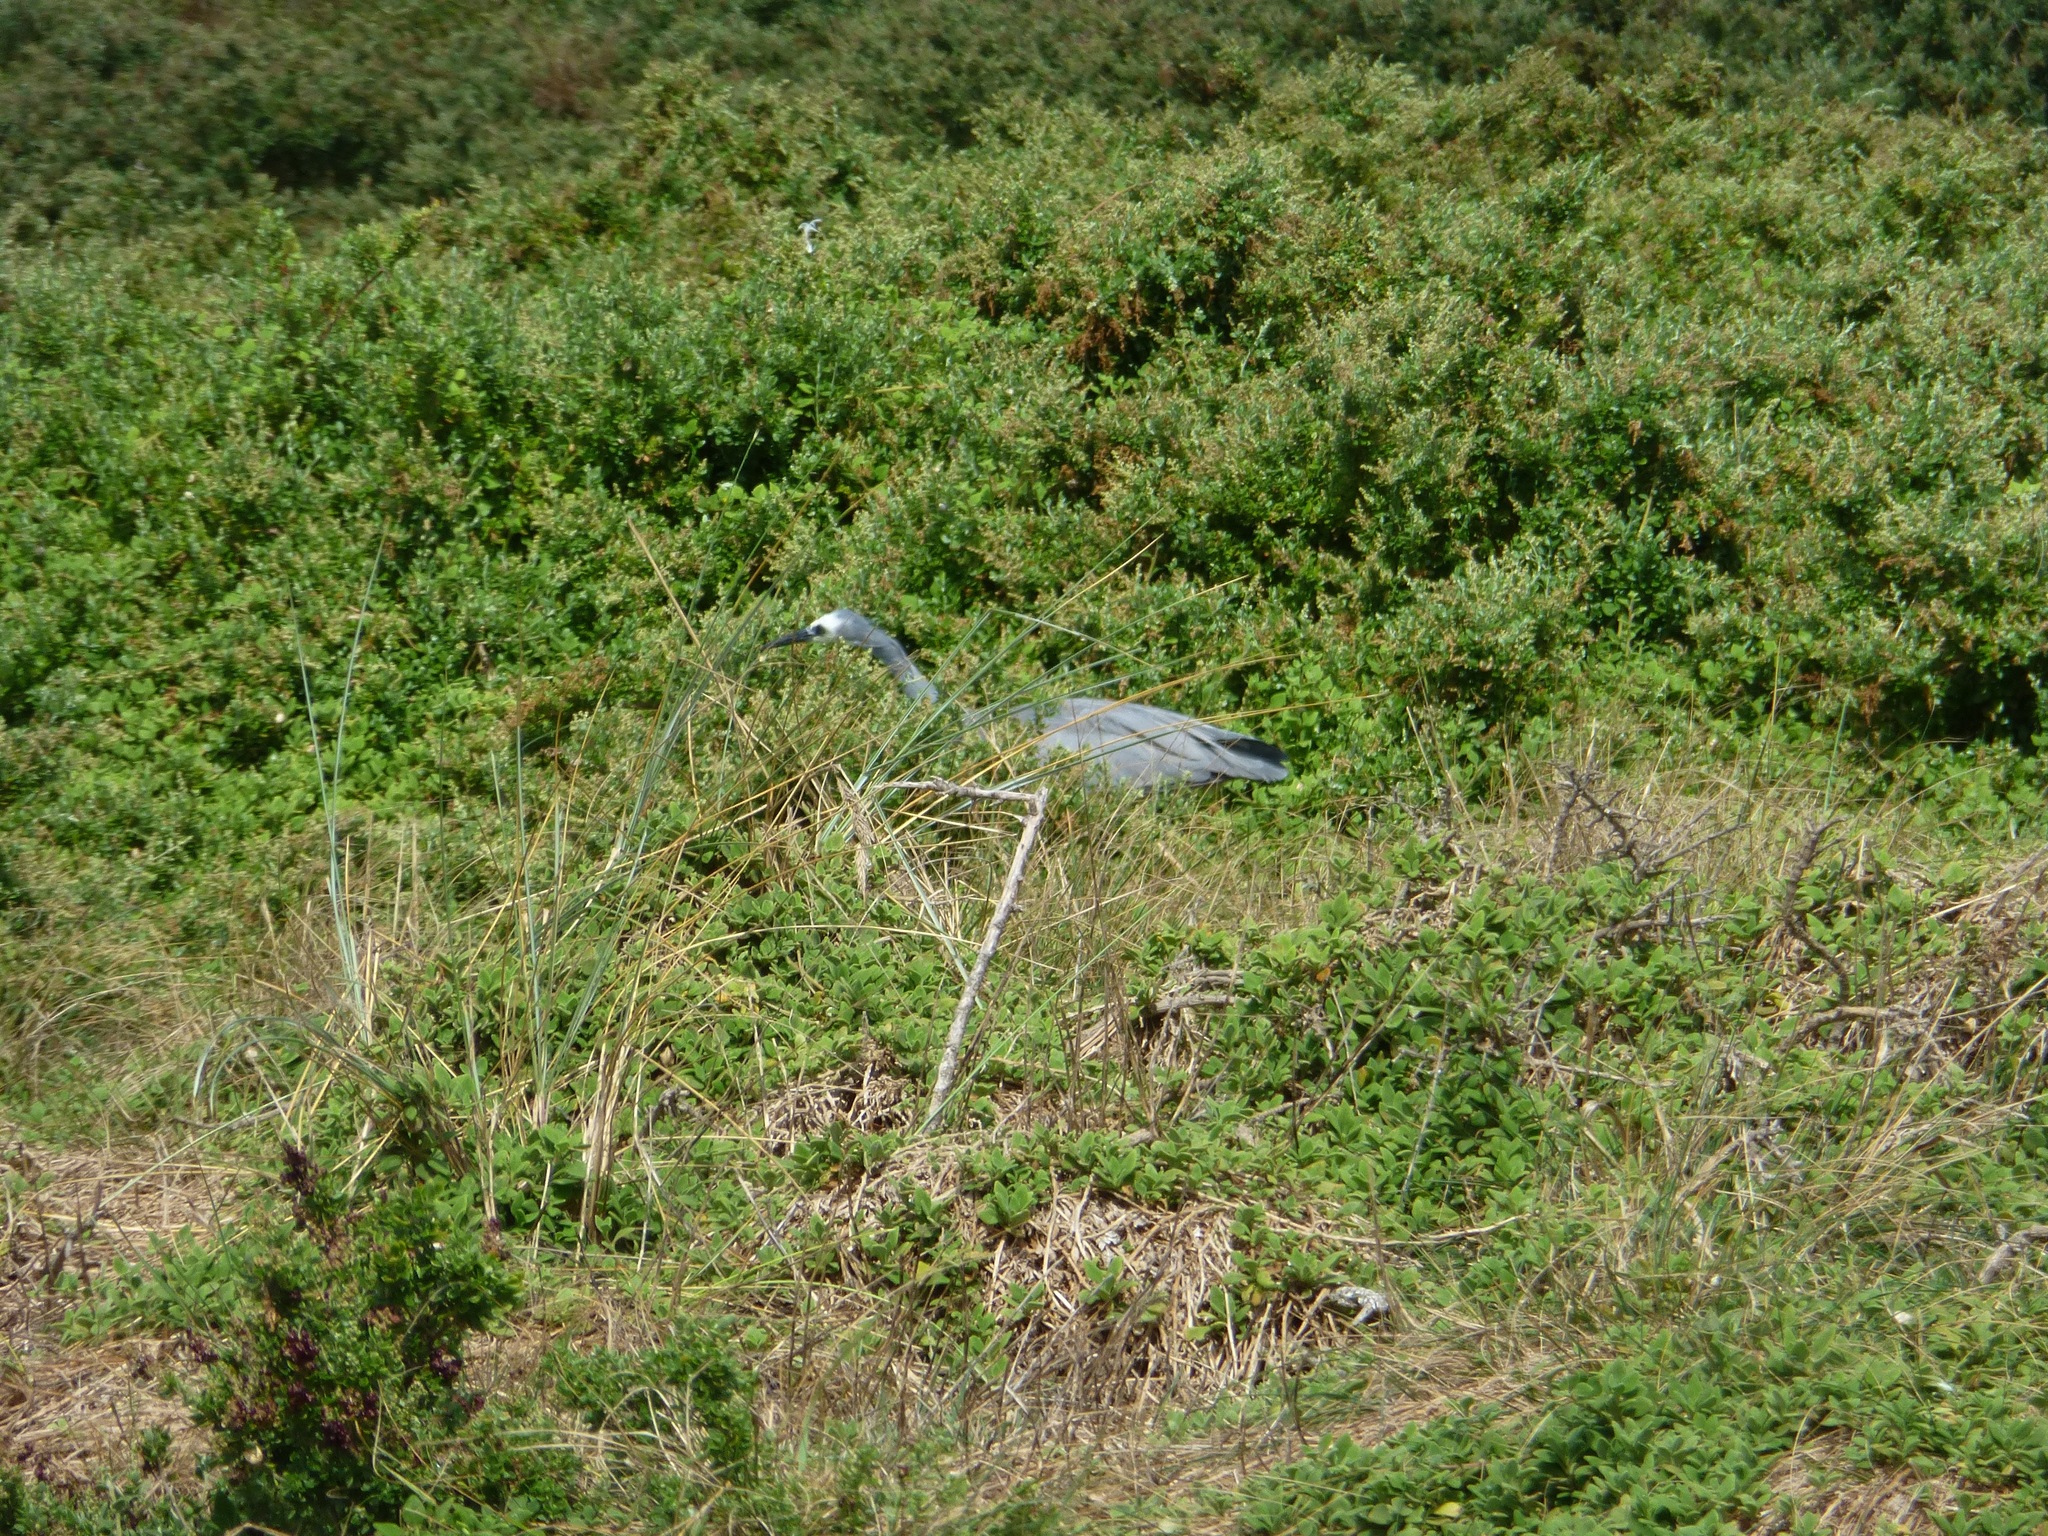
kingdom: Animalia
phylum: Chordata
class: Aves
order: Pelecaniformes
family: Ardeidae
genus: Egretta
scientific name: Egretta novaehollandiae
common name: White-faced heron
